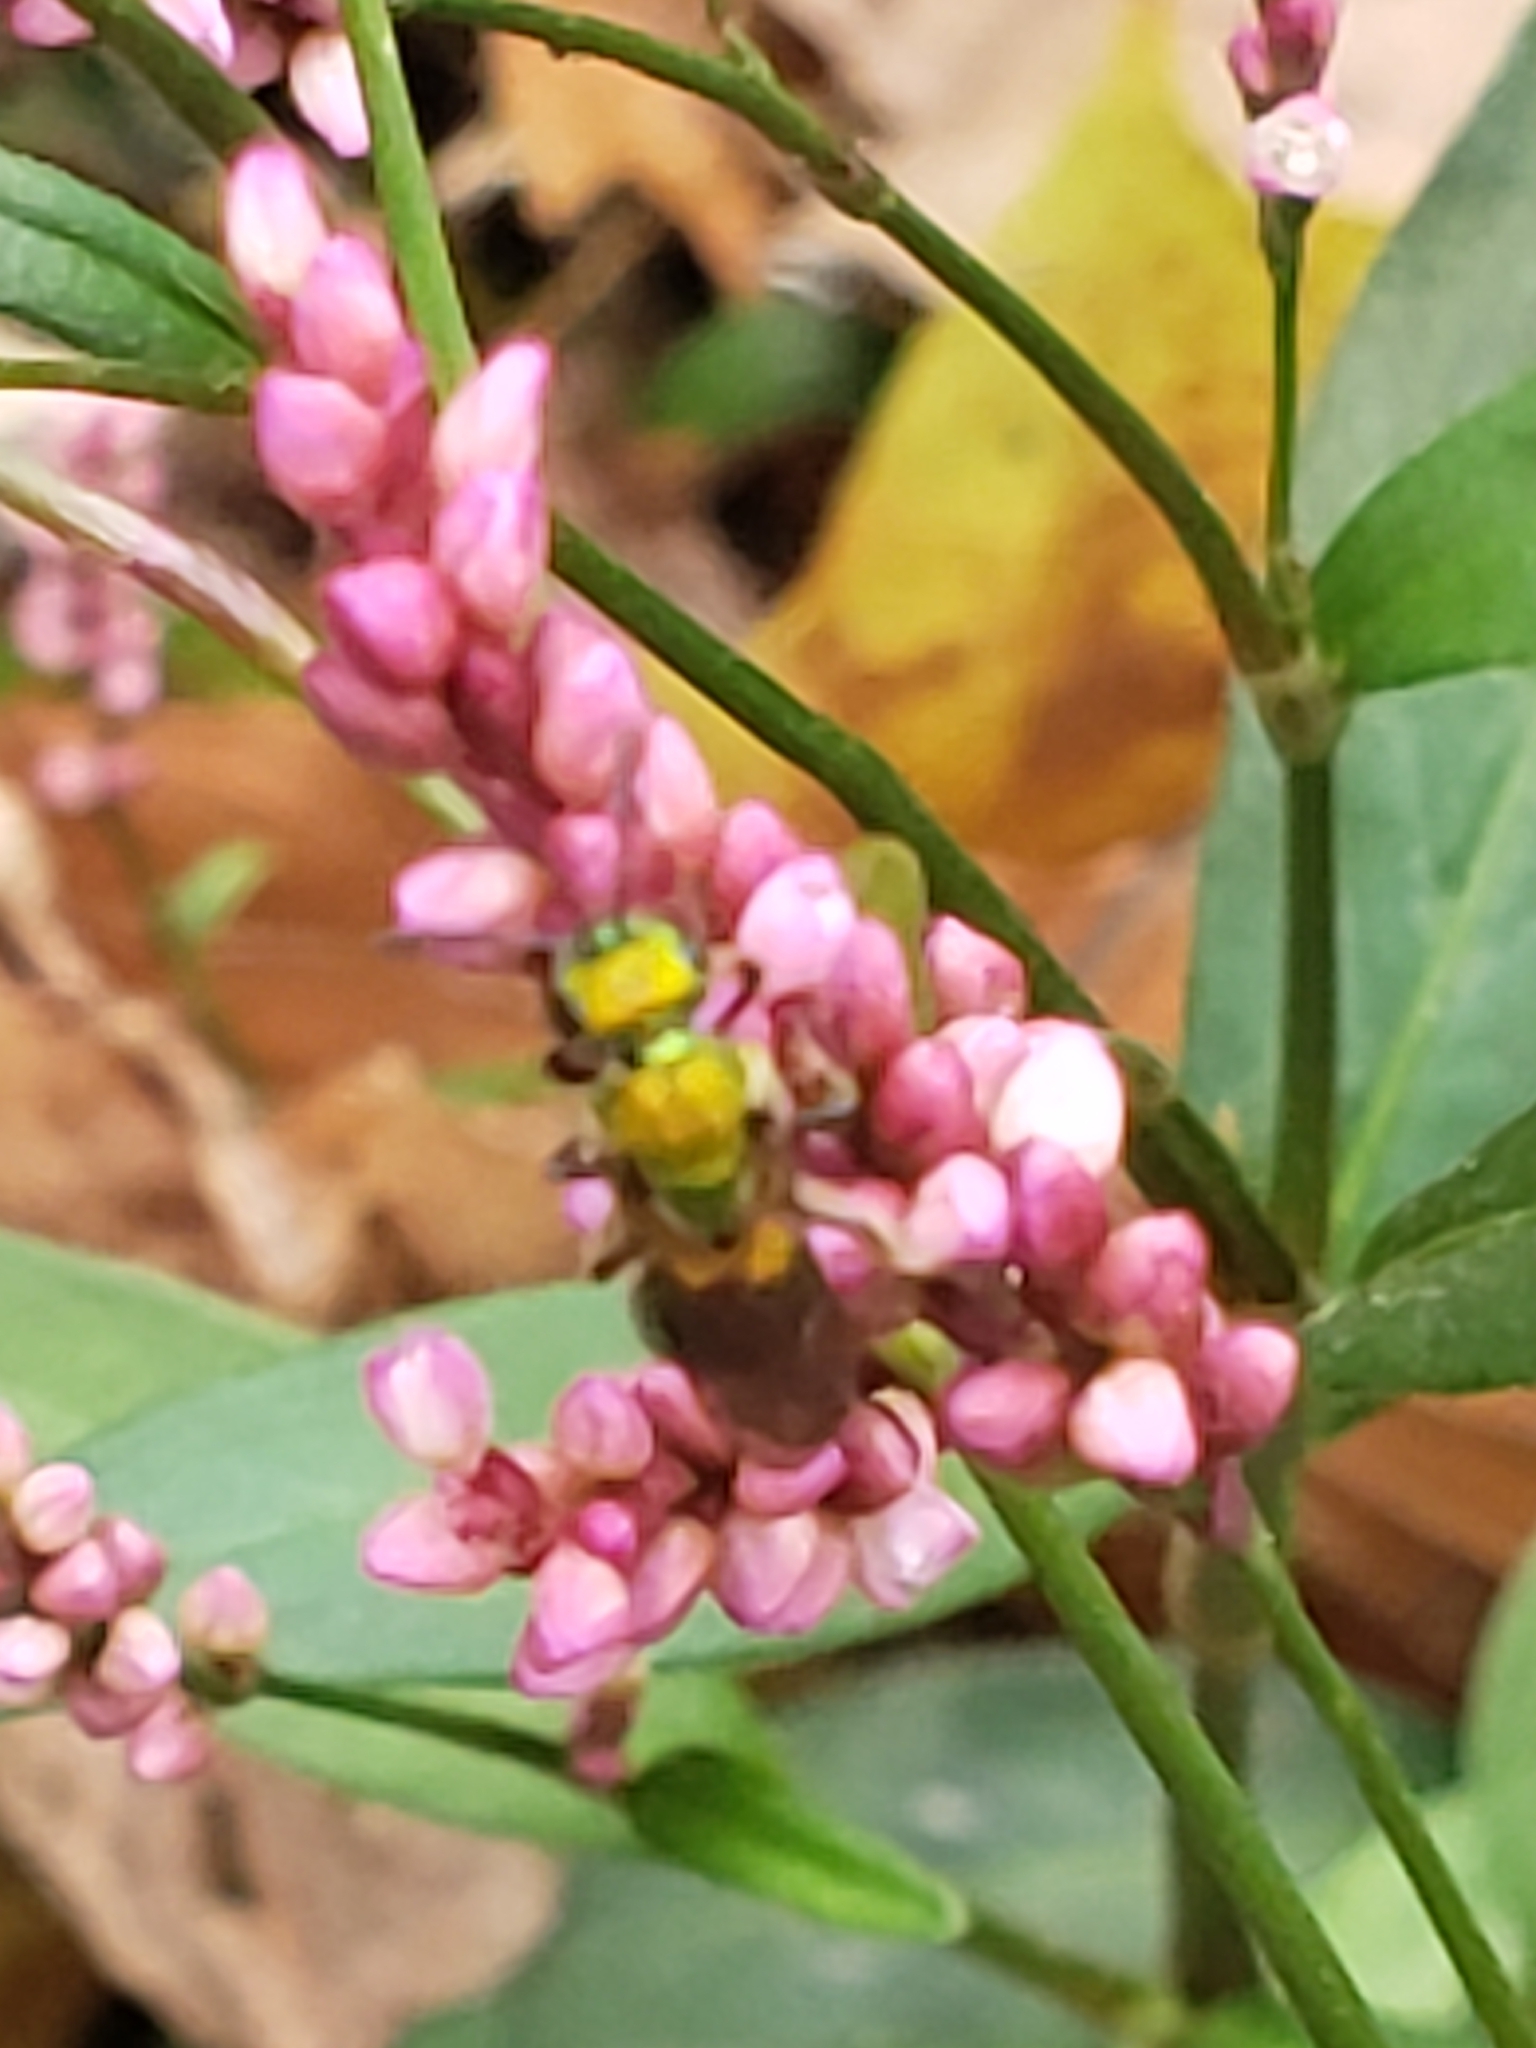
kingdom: Animalia
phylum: Arthropoda
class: Insecta
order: Hymenoptera
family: Halictidae
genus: Augochlora
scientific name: Augochlora pura
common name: Pure green sweat bee
